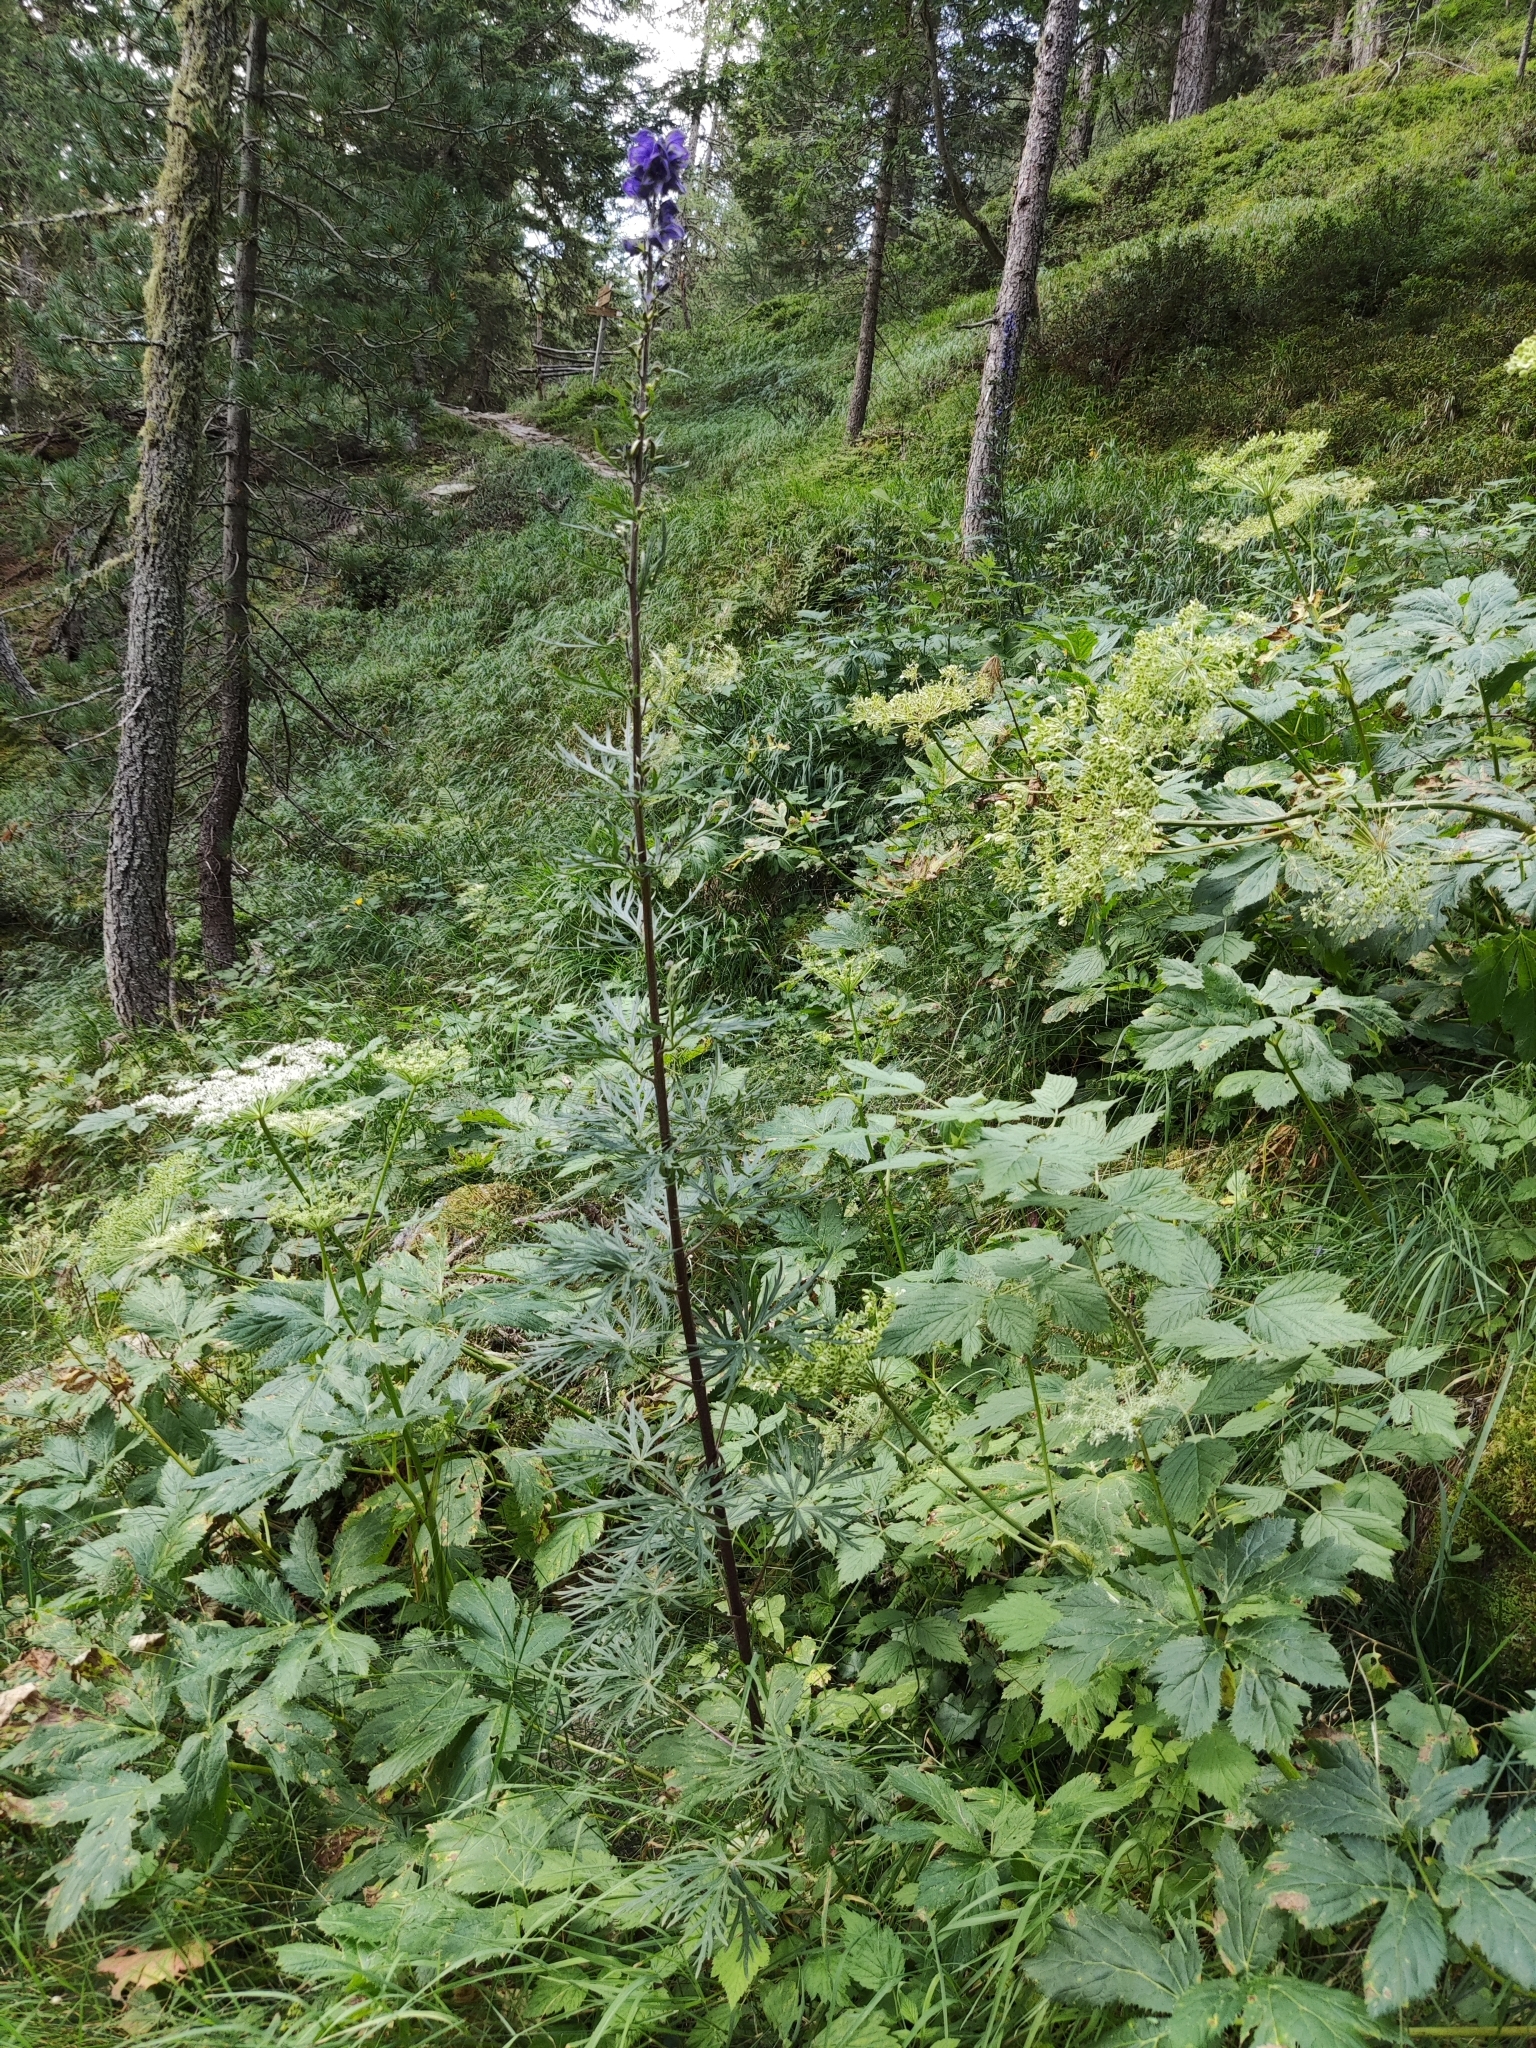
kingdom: Plantae
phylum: Tracheophyta
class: Magnoliopsida
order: Ranunculales
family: Ranunculaceae
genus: Aconitum
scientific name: Aconitum napellus
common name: Garden monkshood
